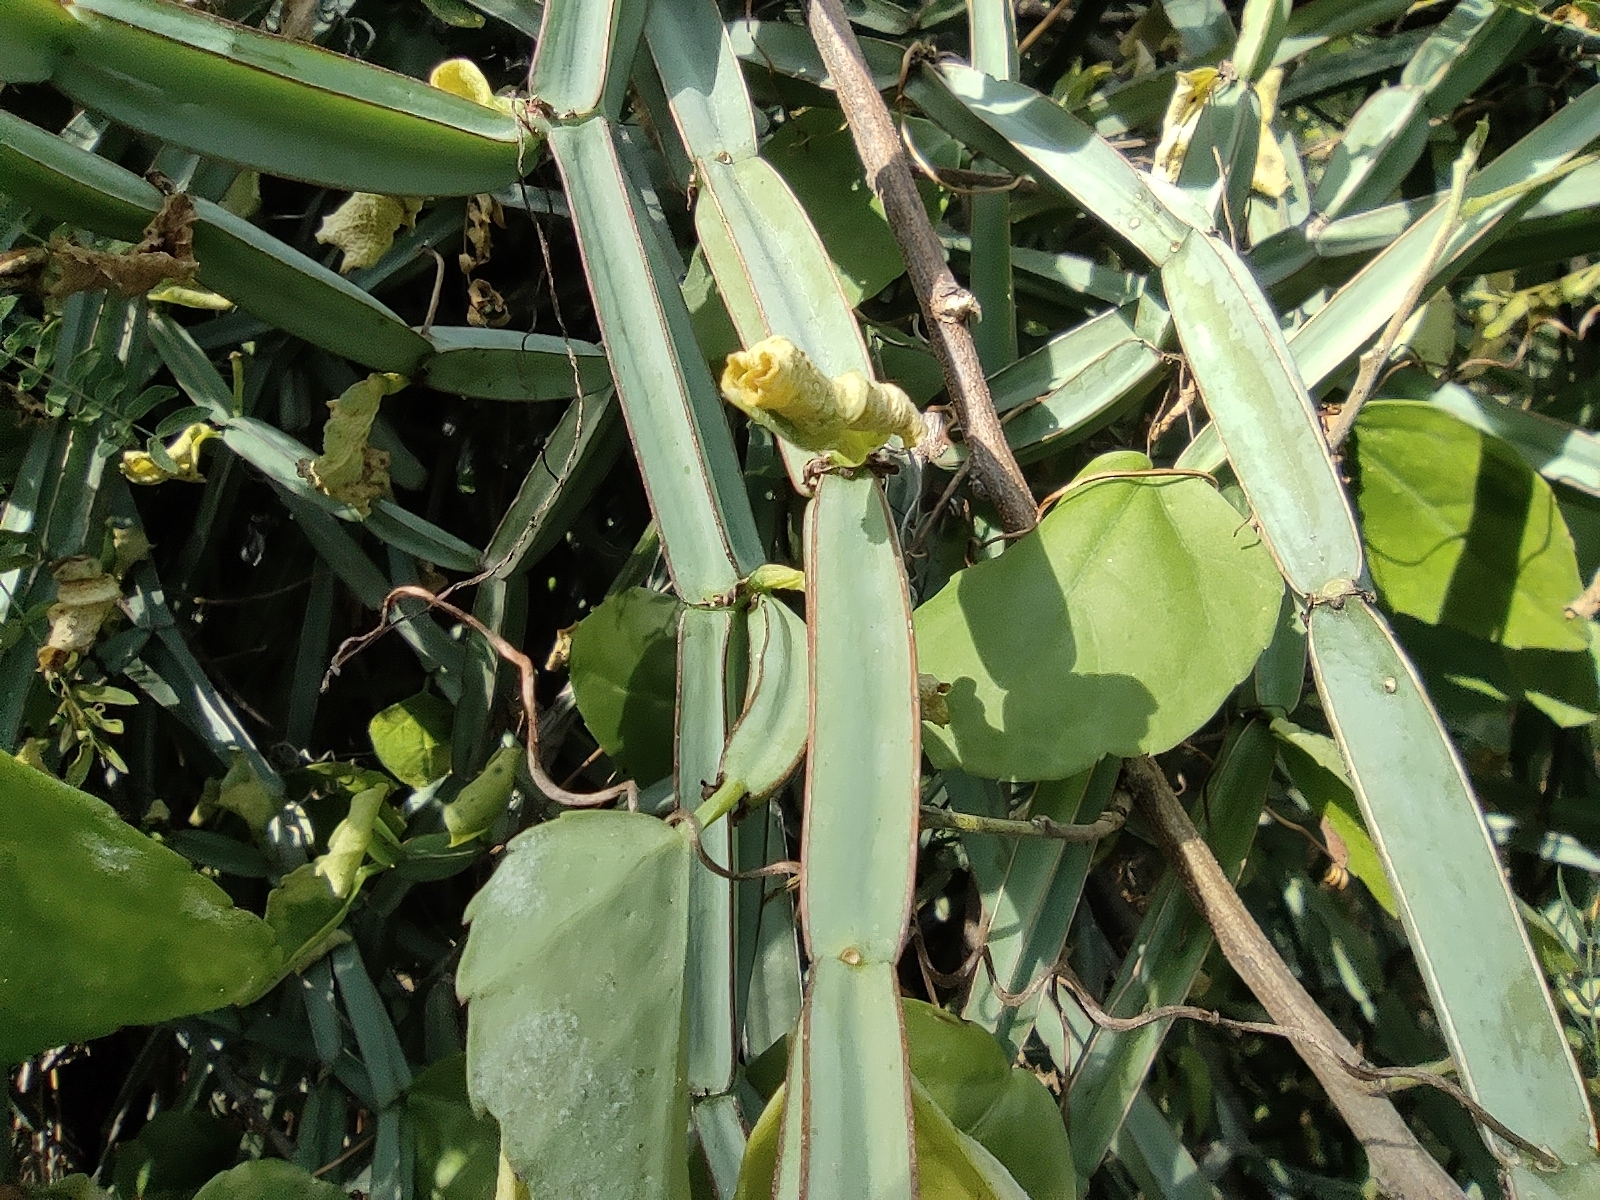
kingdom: Plantae
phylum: Tracheophyta
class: Magnoliopsida
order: Vitales
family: Vitaceae
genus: Cissus
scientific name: Cissus quadrangularis
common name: Veldt-grape
